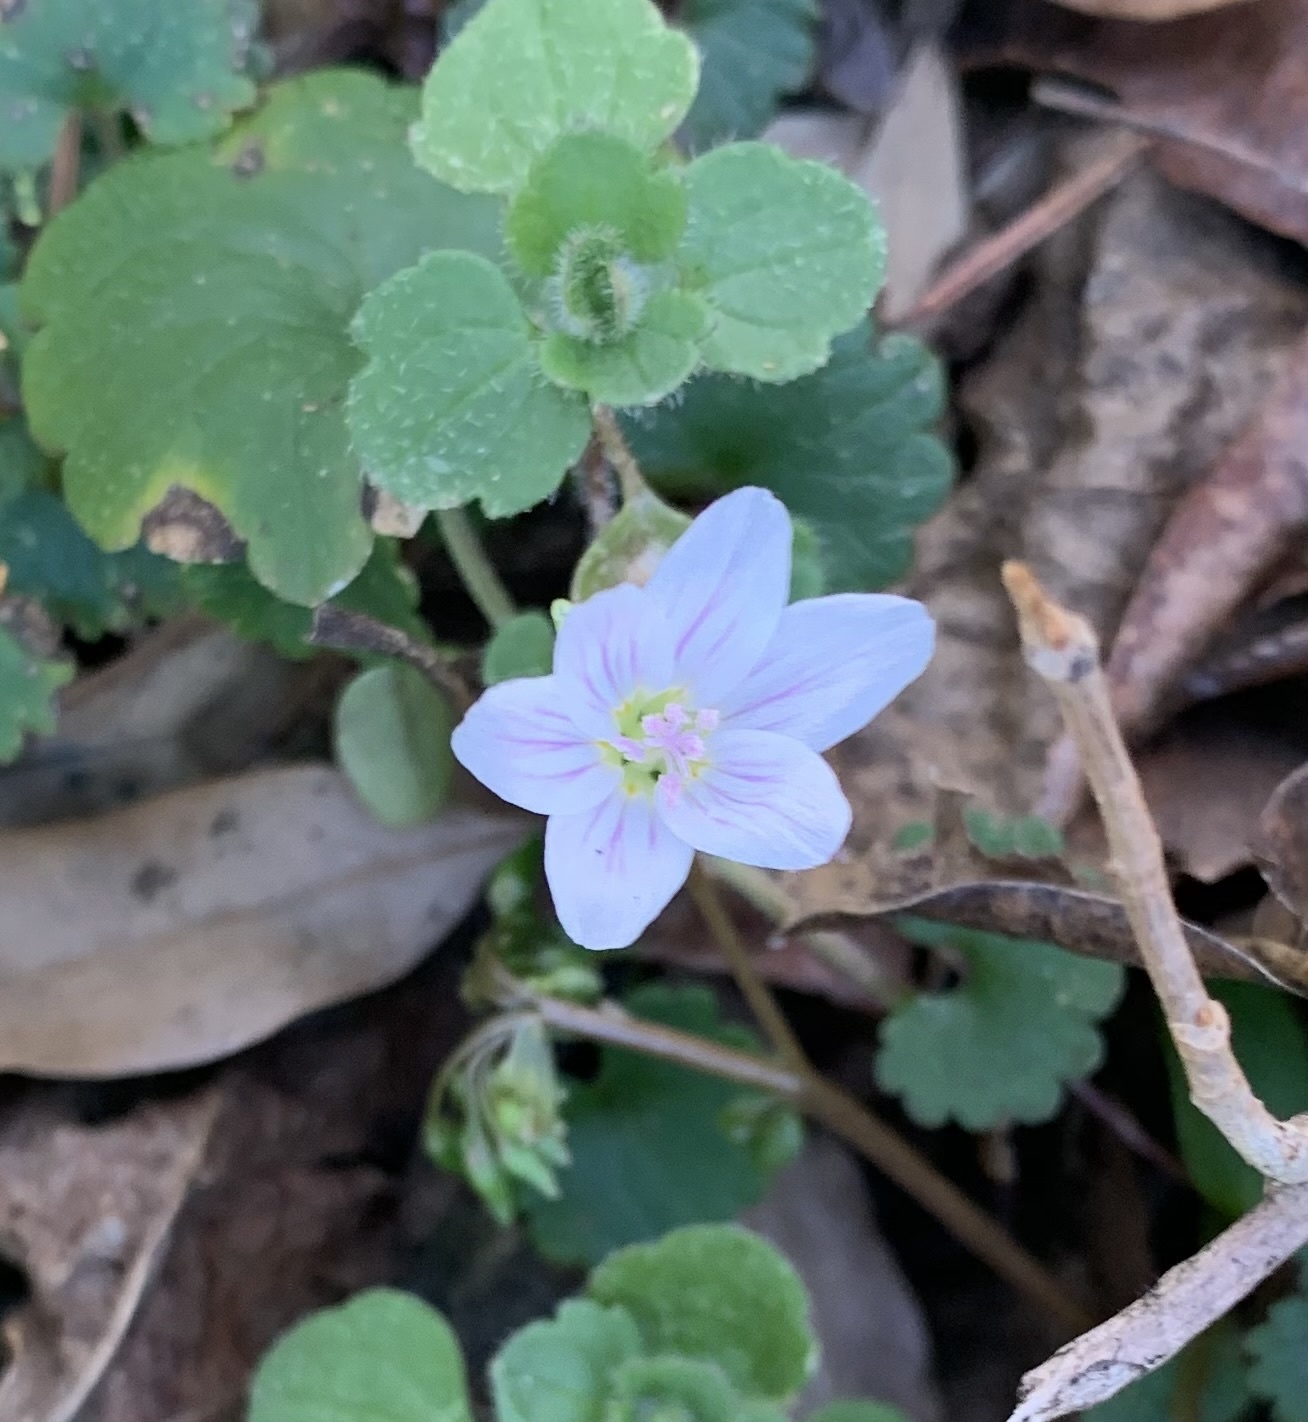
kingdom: Plantae
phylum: Tracheophyta
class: Magnoliopsida
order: Caryophyllales
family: Montiaceae
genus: Claytonia
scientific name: Claytonia virginica
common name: Virginia springbeauty
